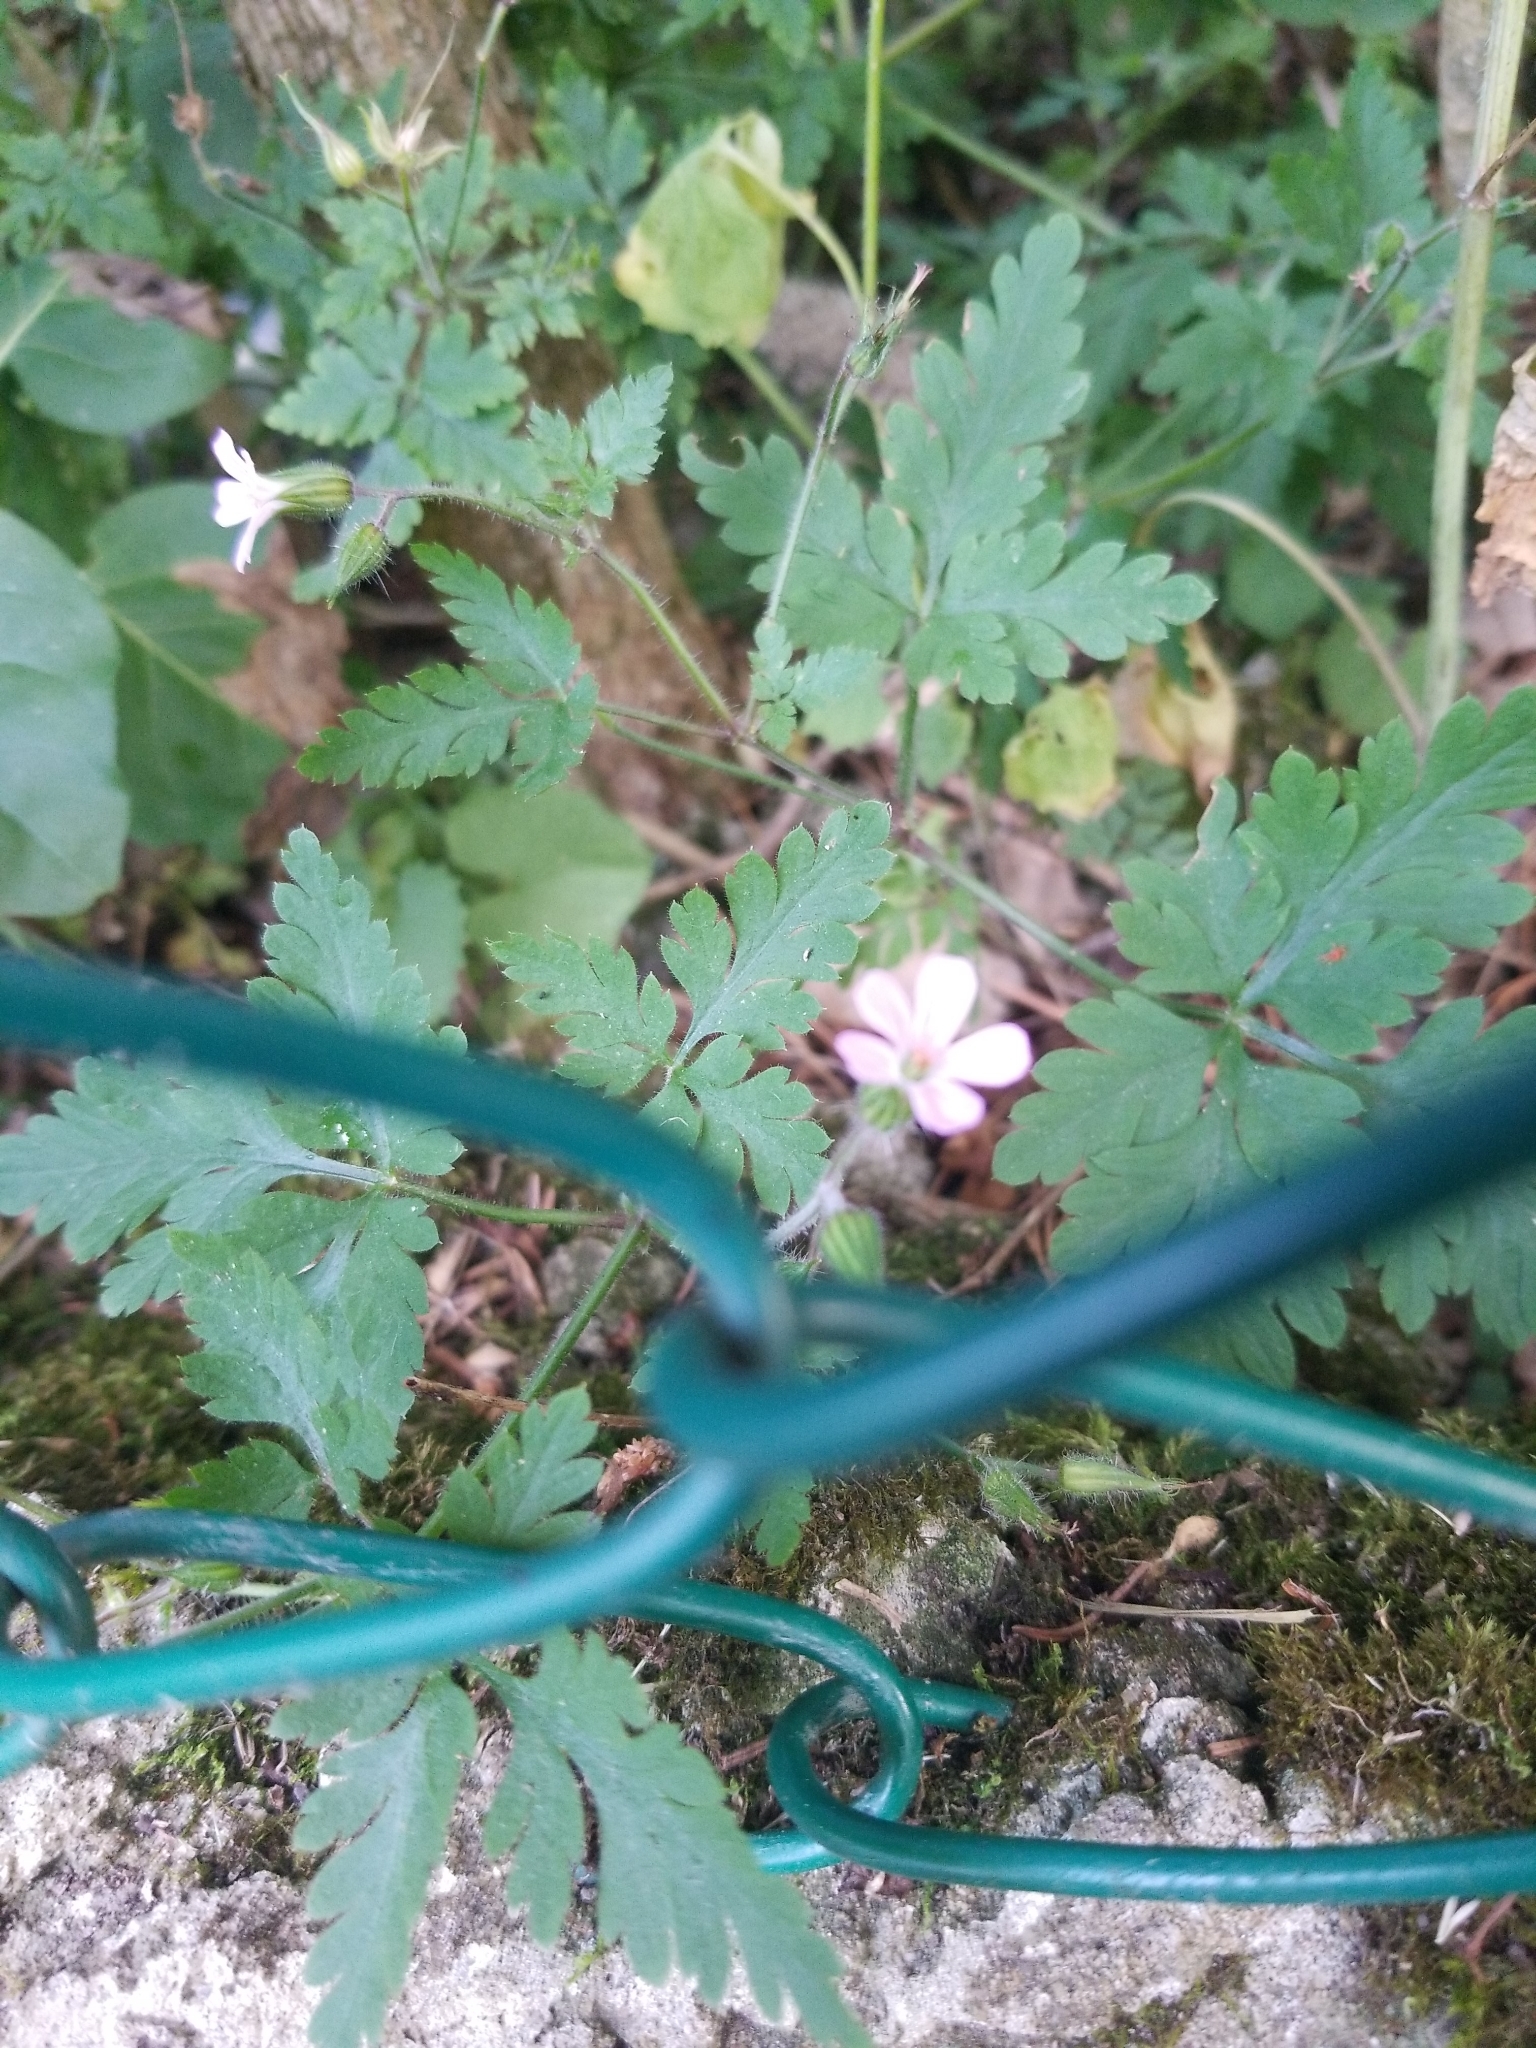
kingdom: Plantae
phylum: Tracheophyta
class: Magnoliopsida
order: Geraniales
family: Geraniaceae
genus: Geranium
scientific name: Geranium robertianum
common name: Herb-robert
